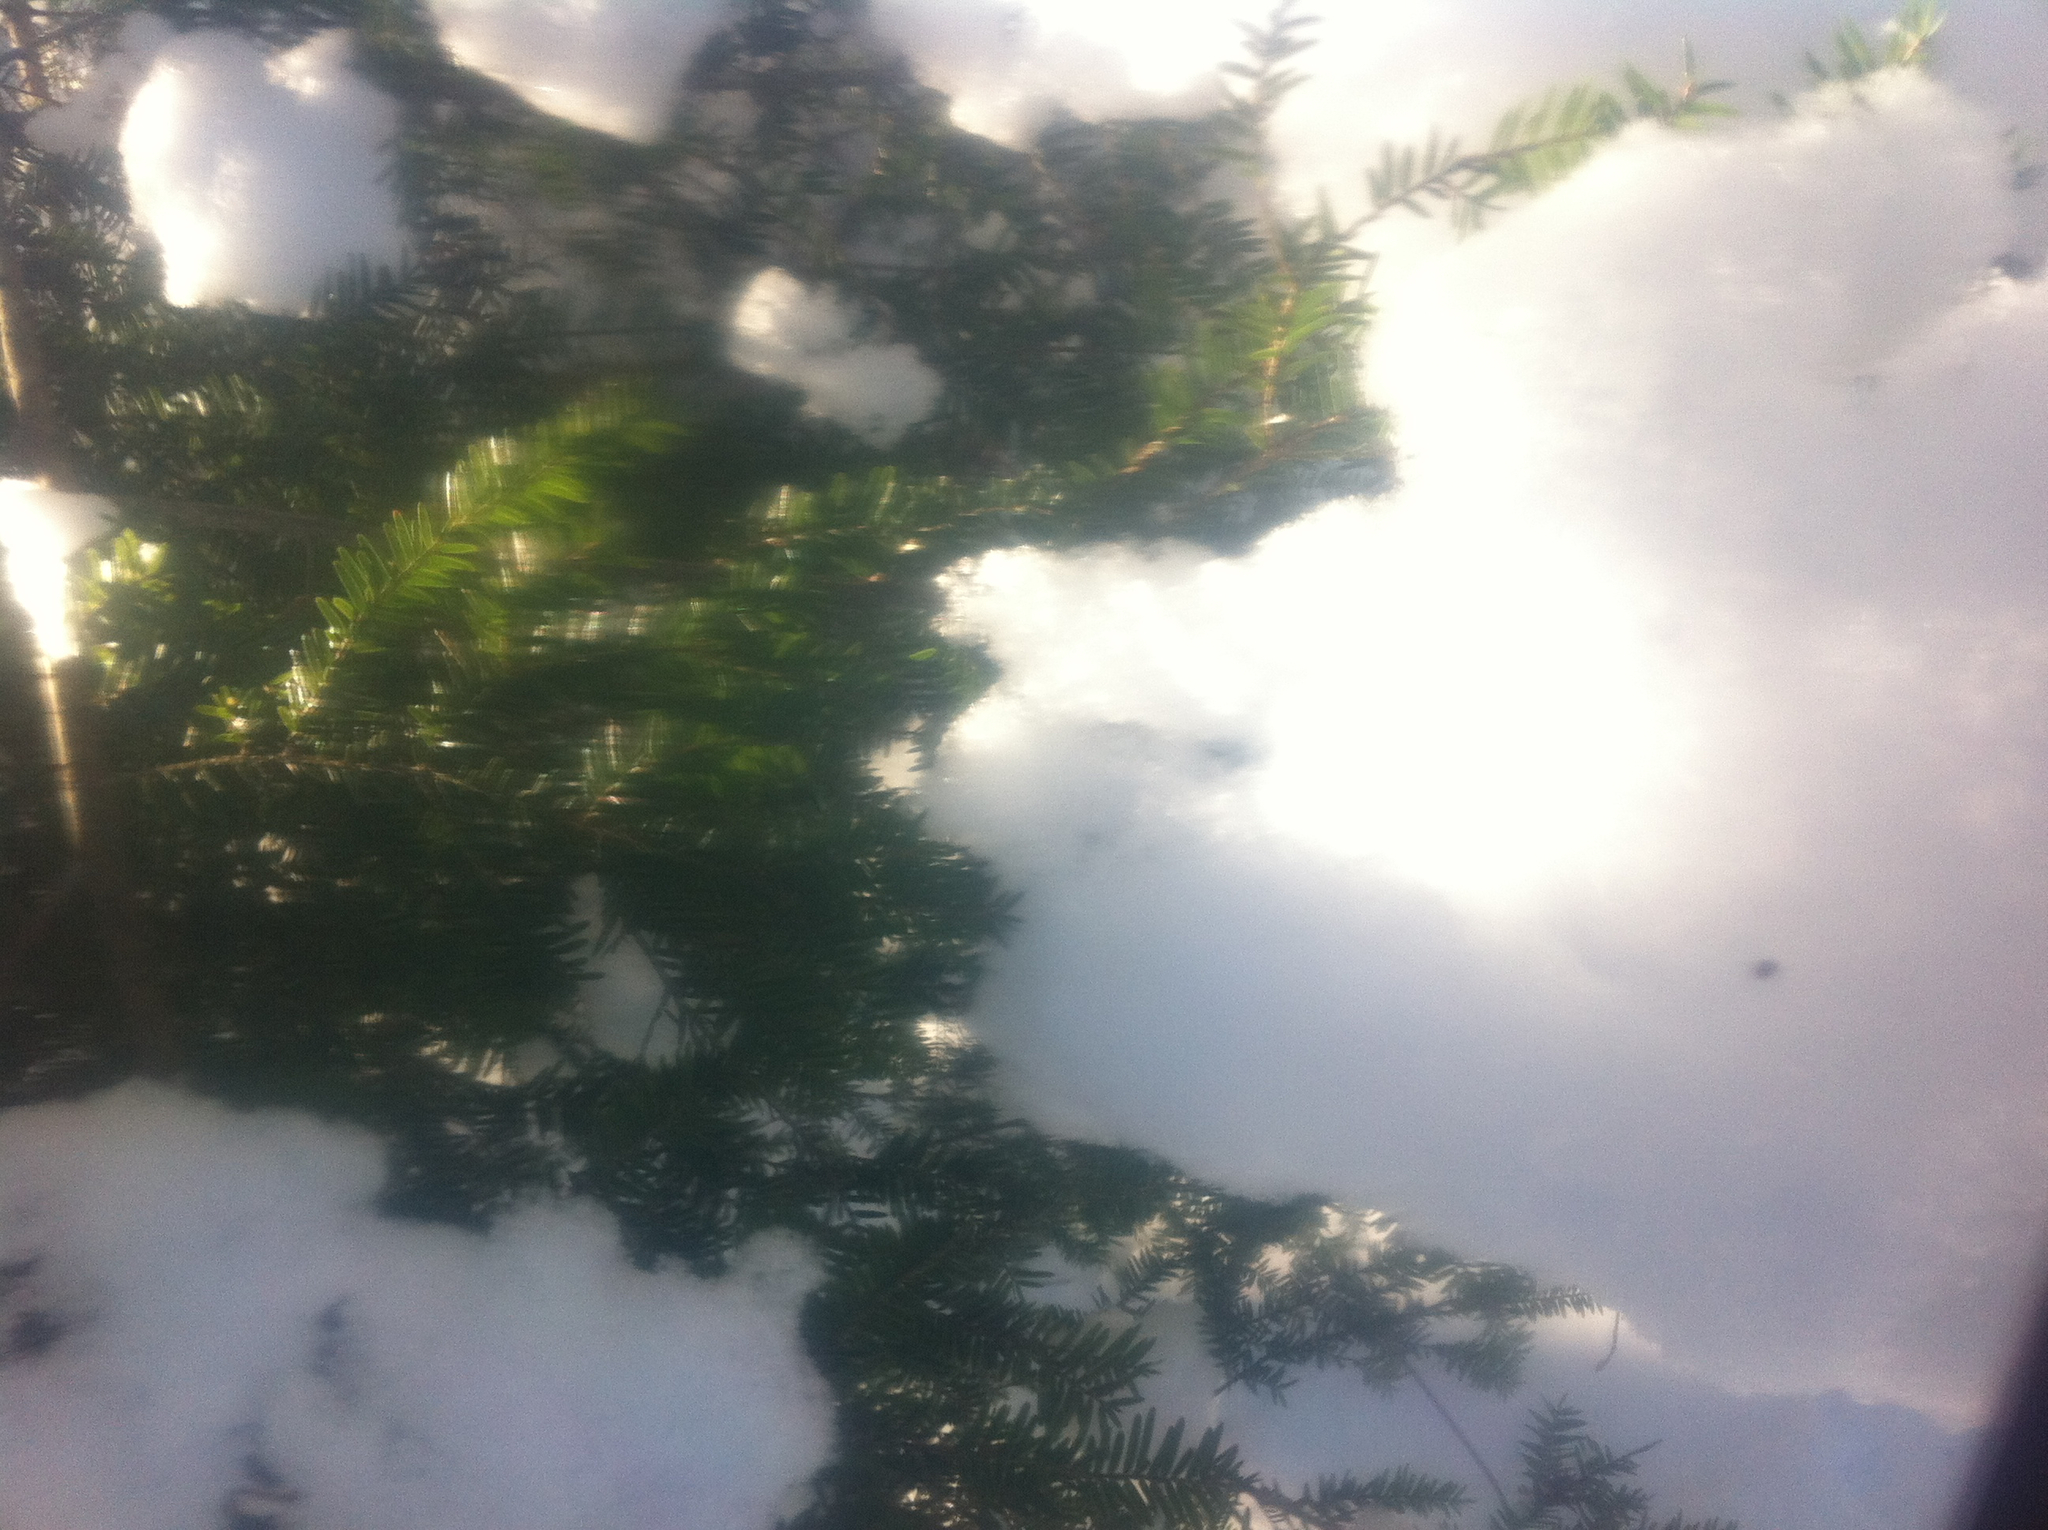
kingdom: Plantae
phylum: Tracheophyta
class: Pinopsida
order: Pinales
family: Pinaceae
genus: Tsuga
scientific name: Tsuga canadensis
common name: Eastern hemlock
